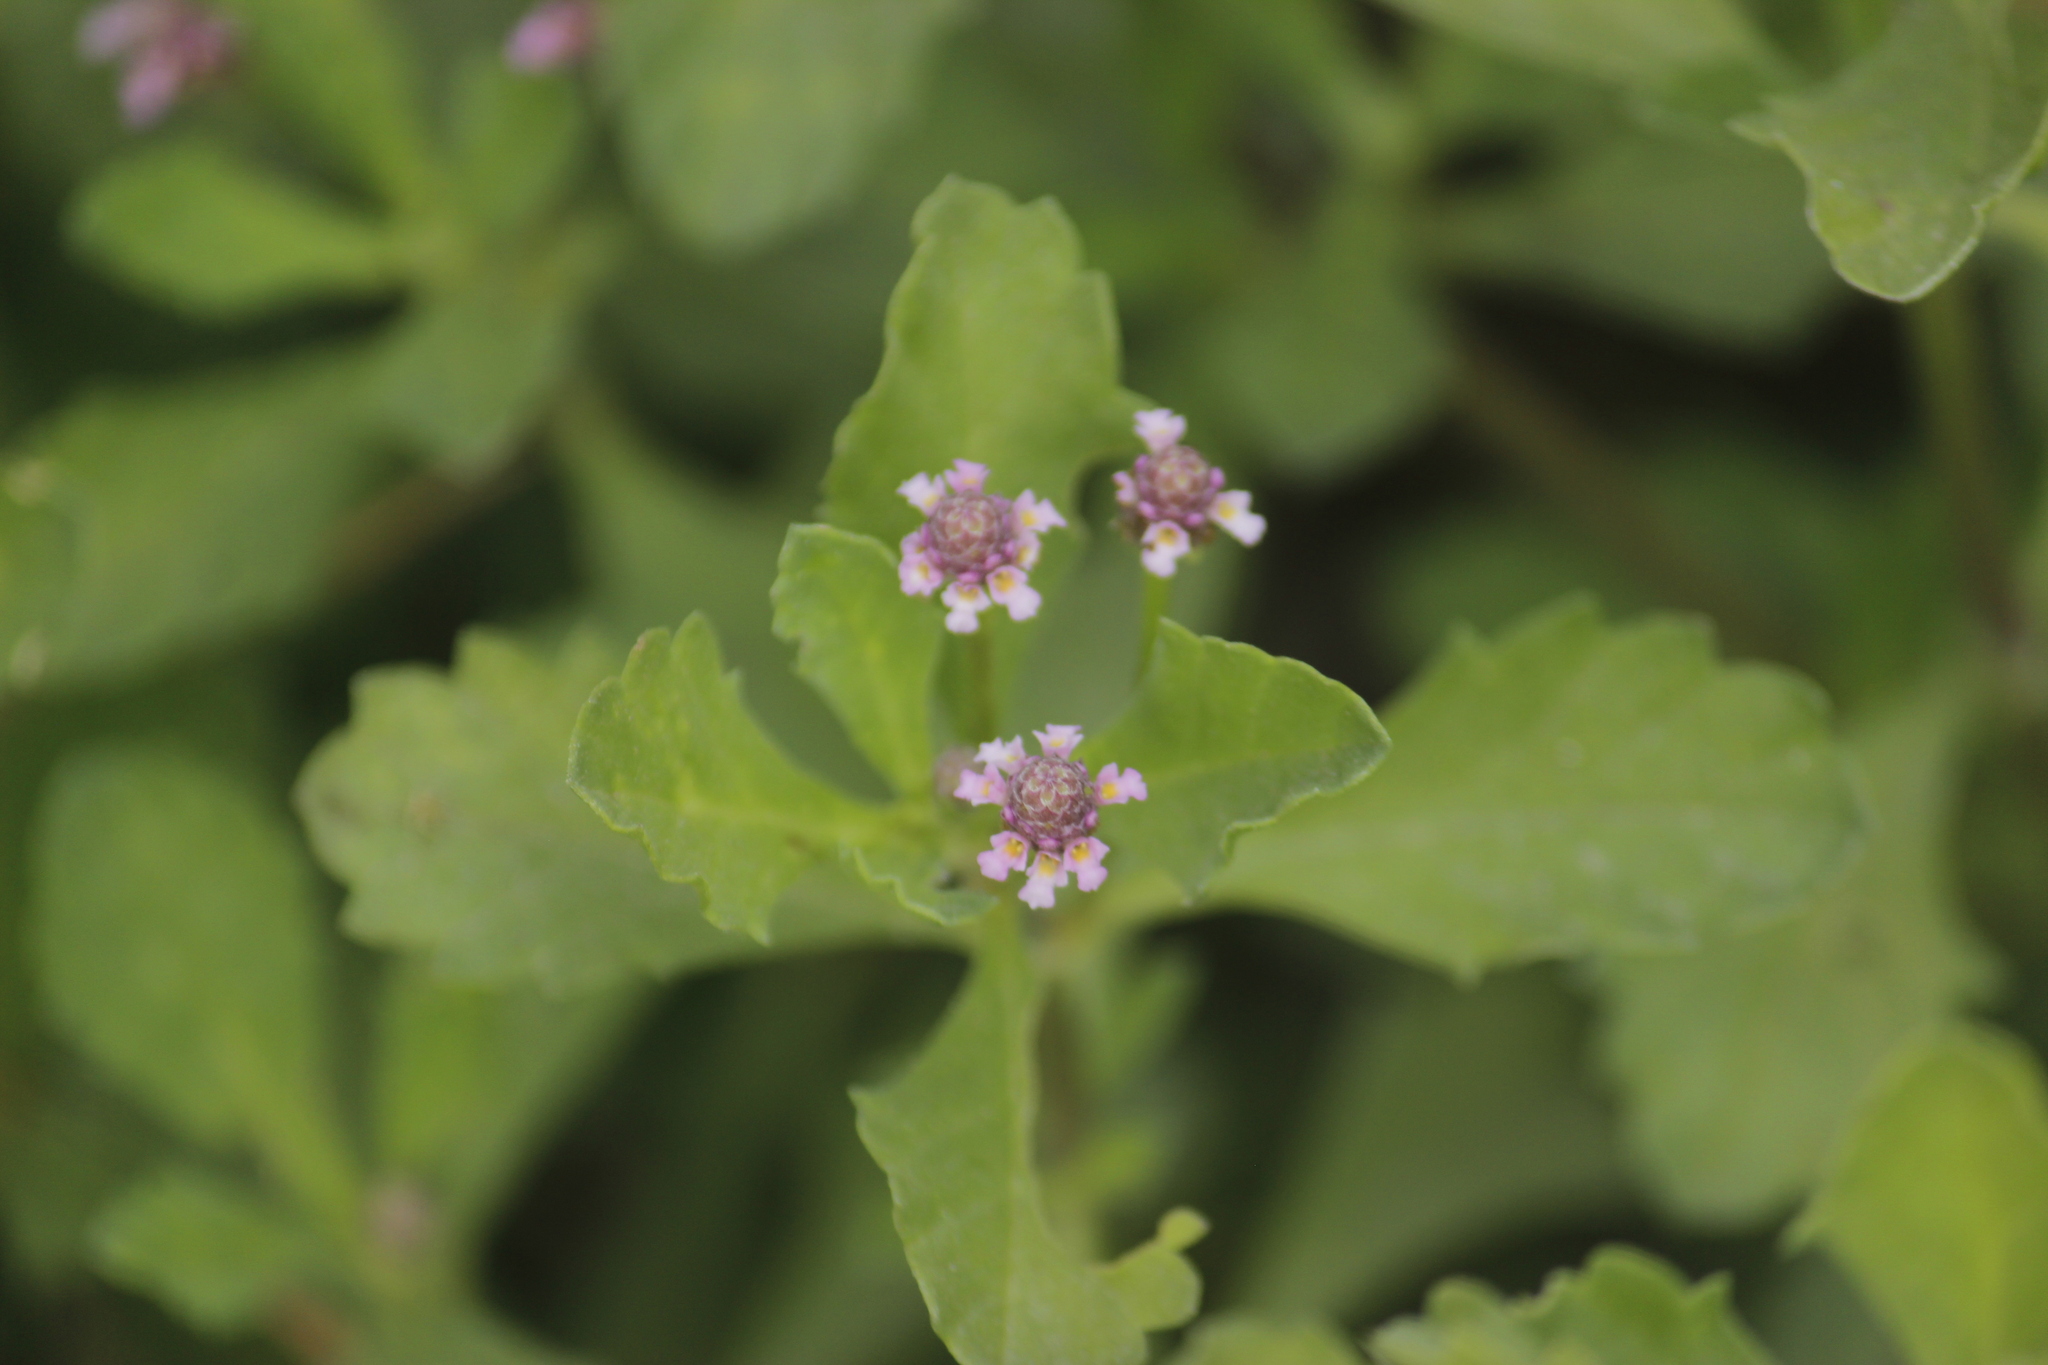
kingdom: Plantae
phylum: Tracheophyta
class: Magnoliopsida
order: Lamiales
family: Verbenaceae
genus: Phyla
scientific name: Phyla nodiflora
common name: Frogfruit
